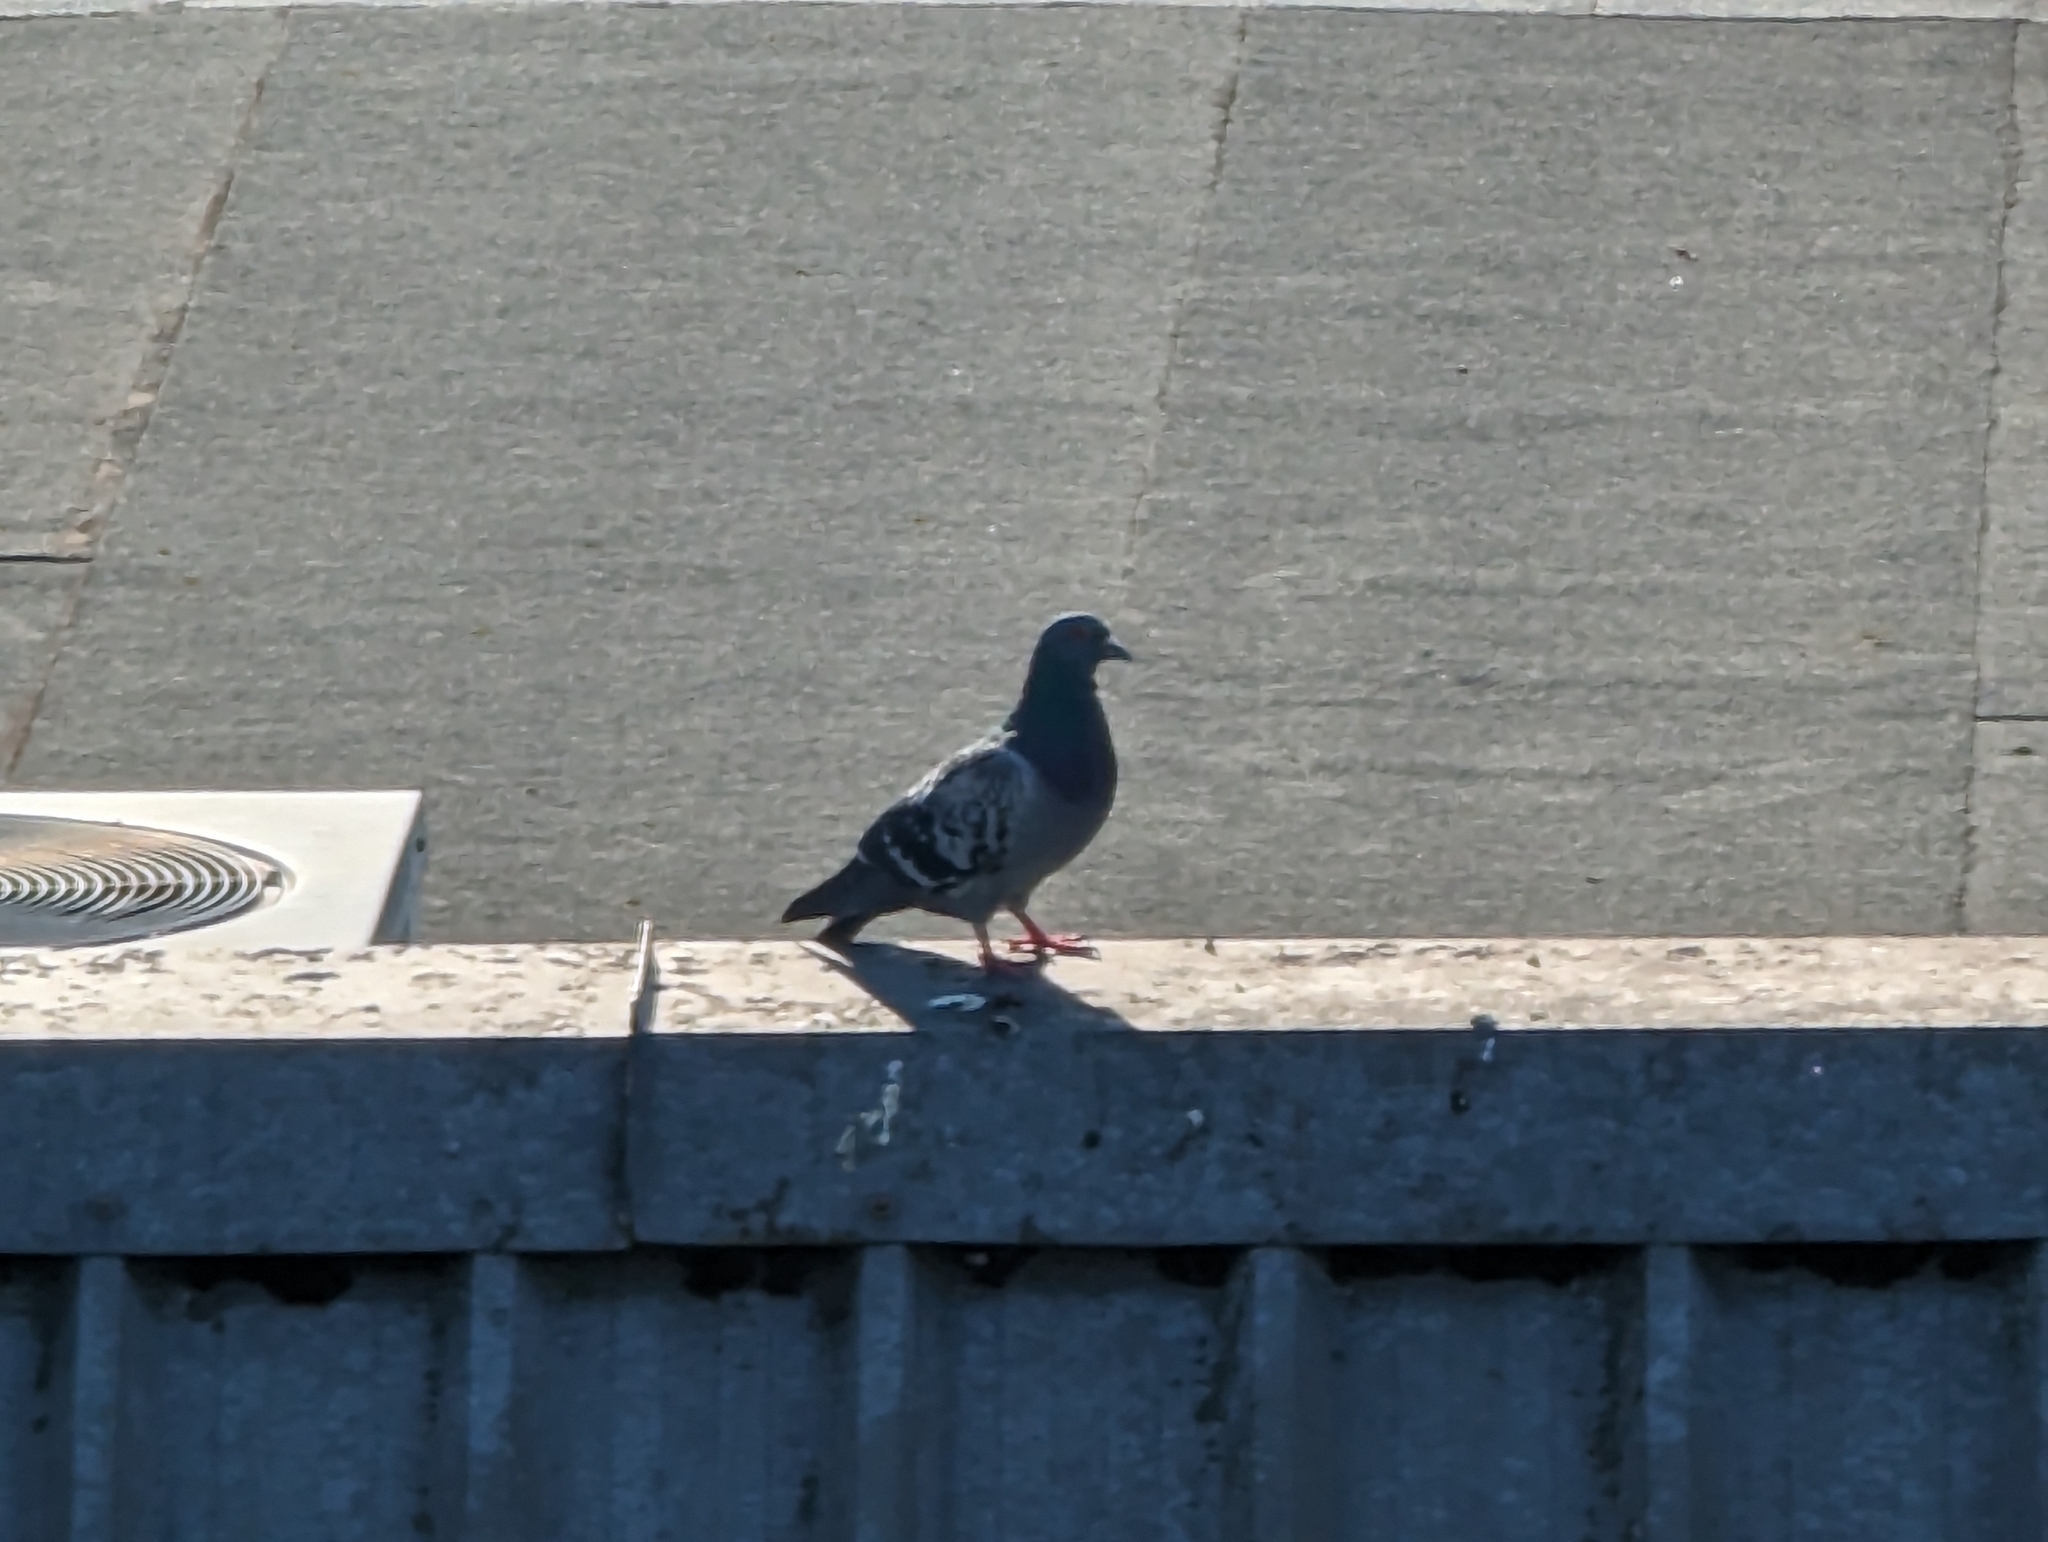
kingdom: Animalia
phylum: Chordata
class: Aves
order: Columbiformes
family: Columbidae
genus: Columba
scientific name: Columba livia
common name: Rock pigeon
